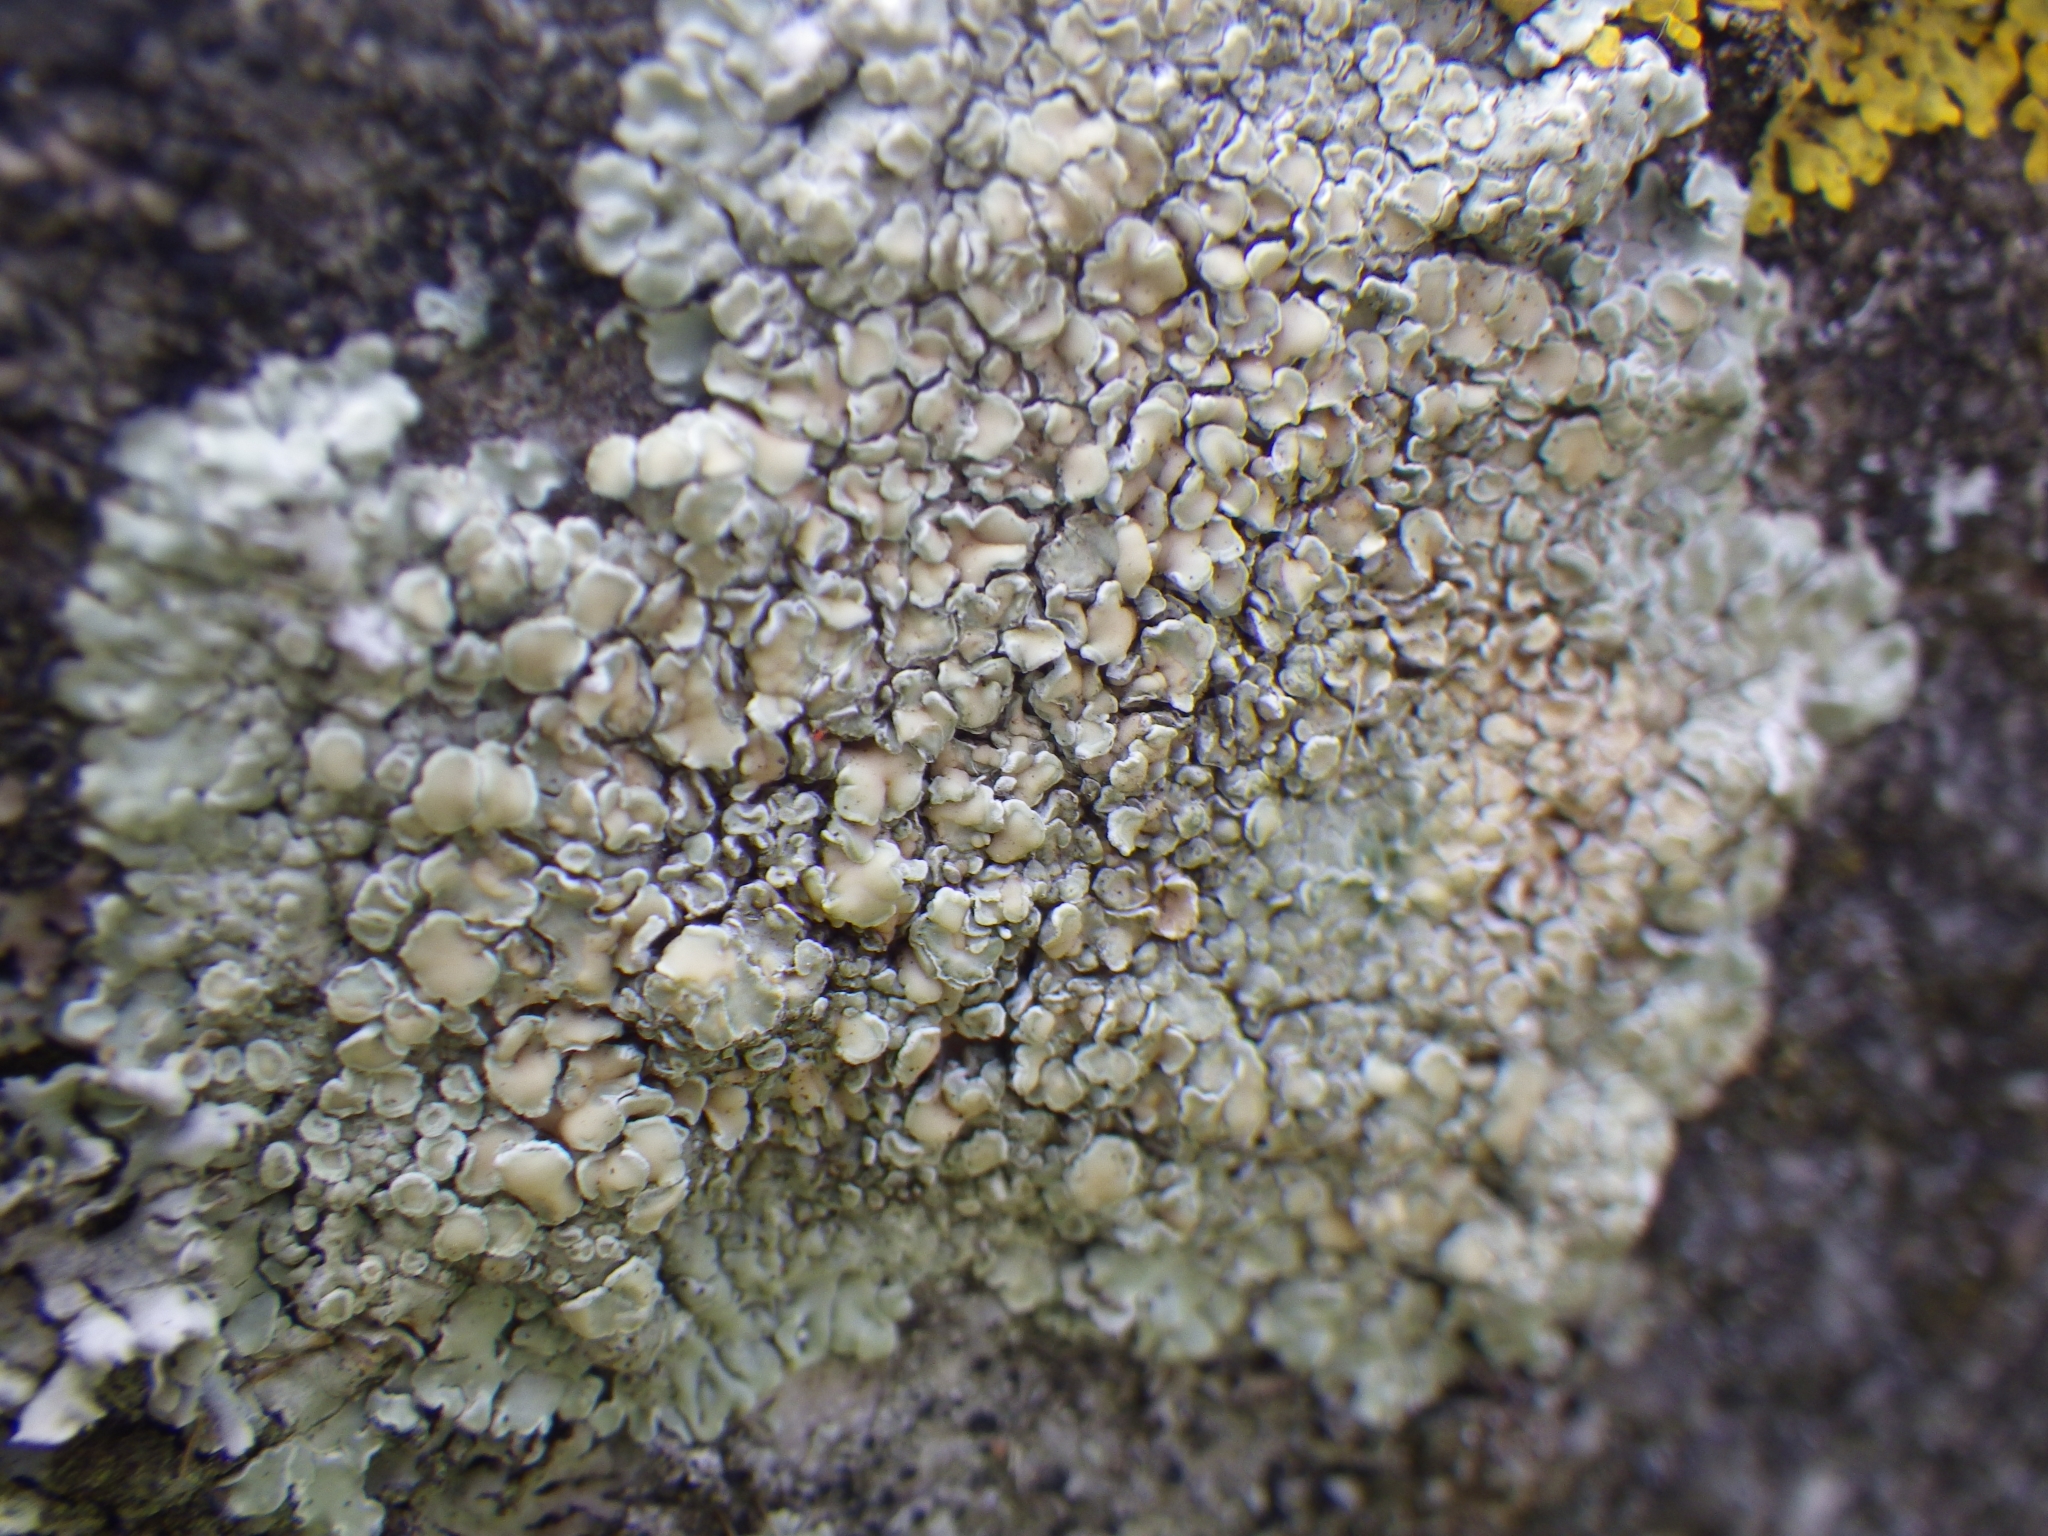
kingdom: Fungi
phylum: Ascomycota
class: Lecanoromycetes
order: Lecanorales
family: Lecanoraceae
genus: Protoparmeliopsis
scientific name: Protoparmeliopsis muralis
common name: Stonewall rim lichen
